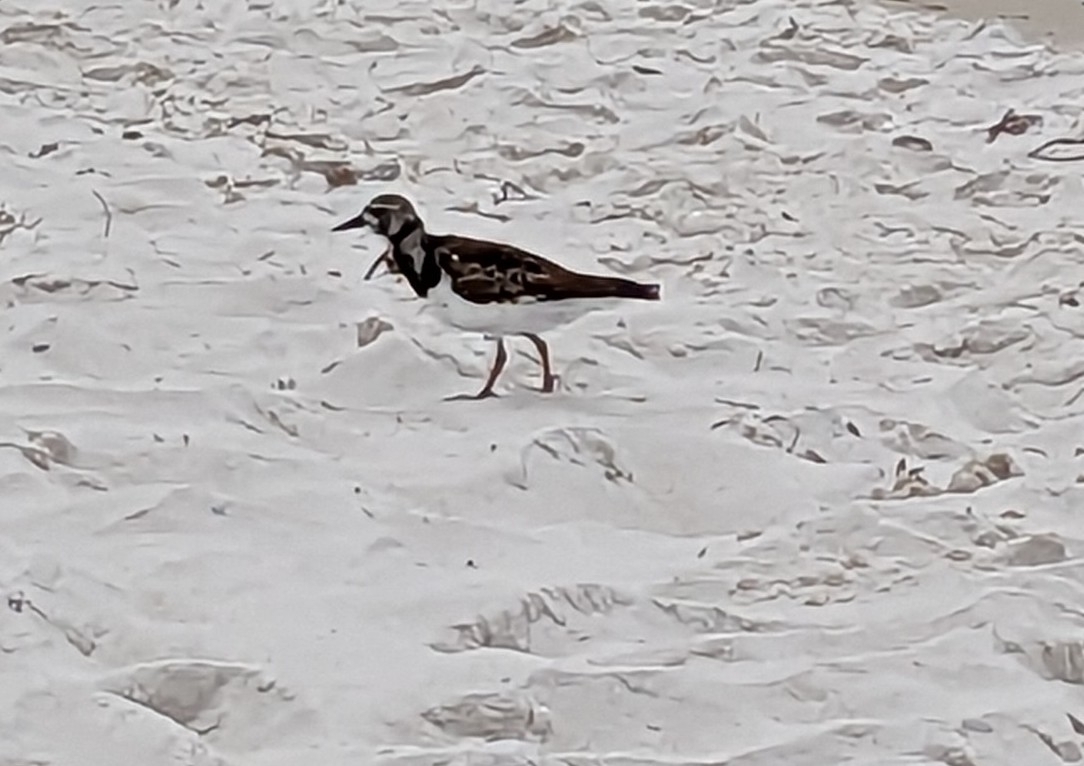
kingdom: Animalia
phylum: Chordata
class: Aves
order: Charadriiformes
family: Scolopacidae
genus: Arenaria
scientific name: Arenaria interpres
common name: Ruddy turnstone
